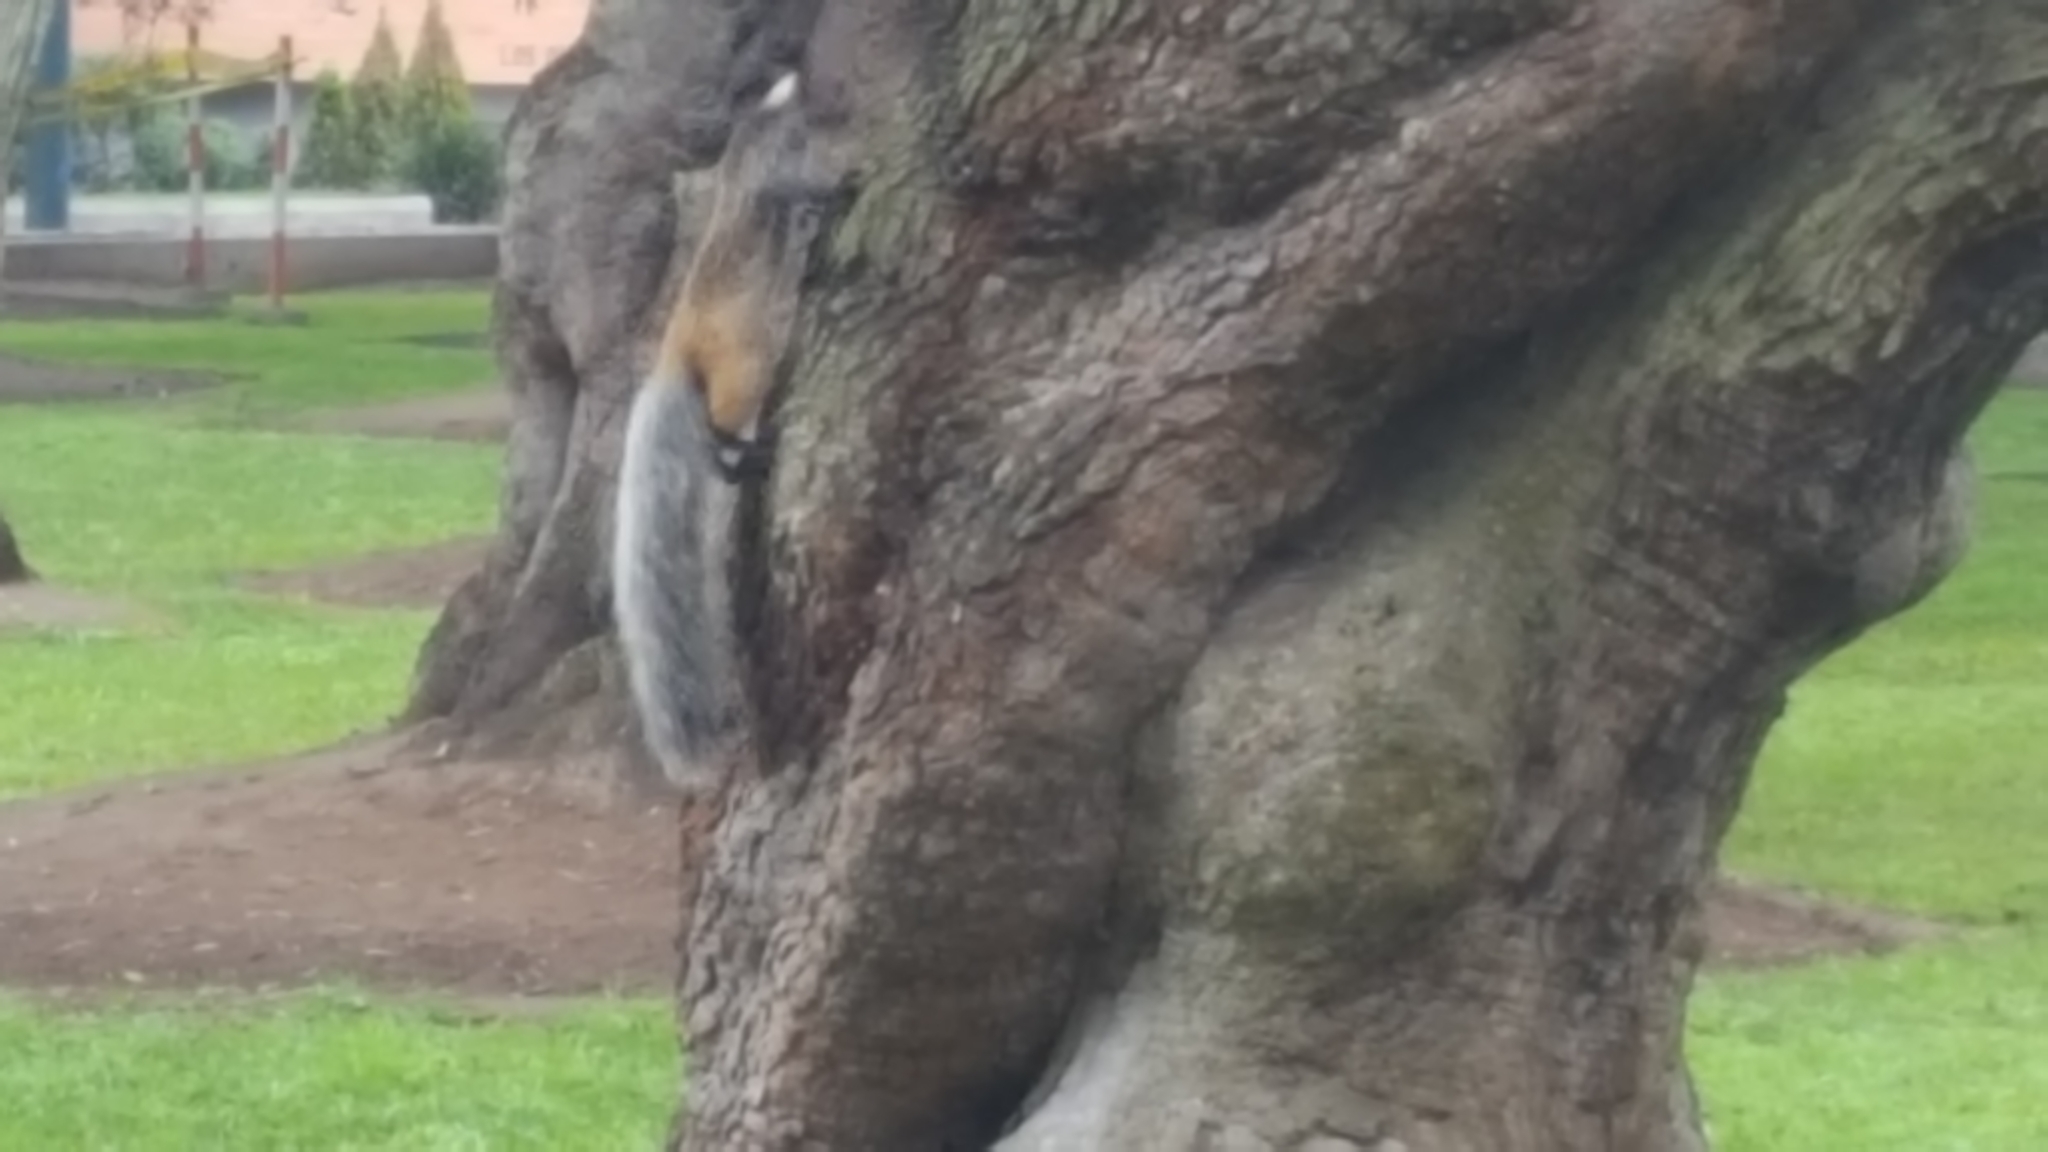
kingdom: Animalia
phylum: Chordata
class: Mammalia
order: Rodentia
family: Sciuridae
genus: Sciurus
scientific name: Sciurus stramineus
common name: Guayaquil squirrel
